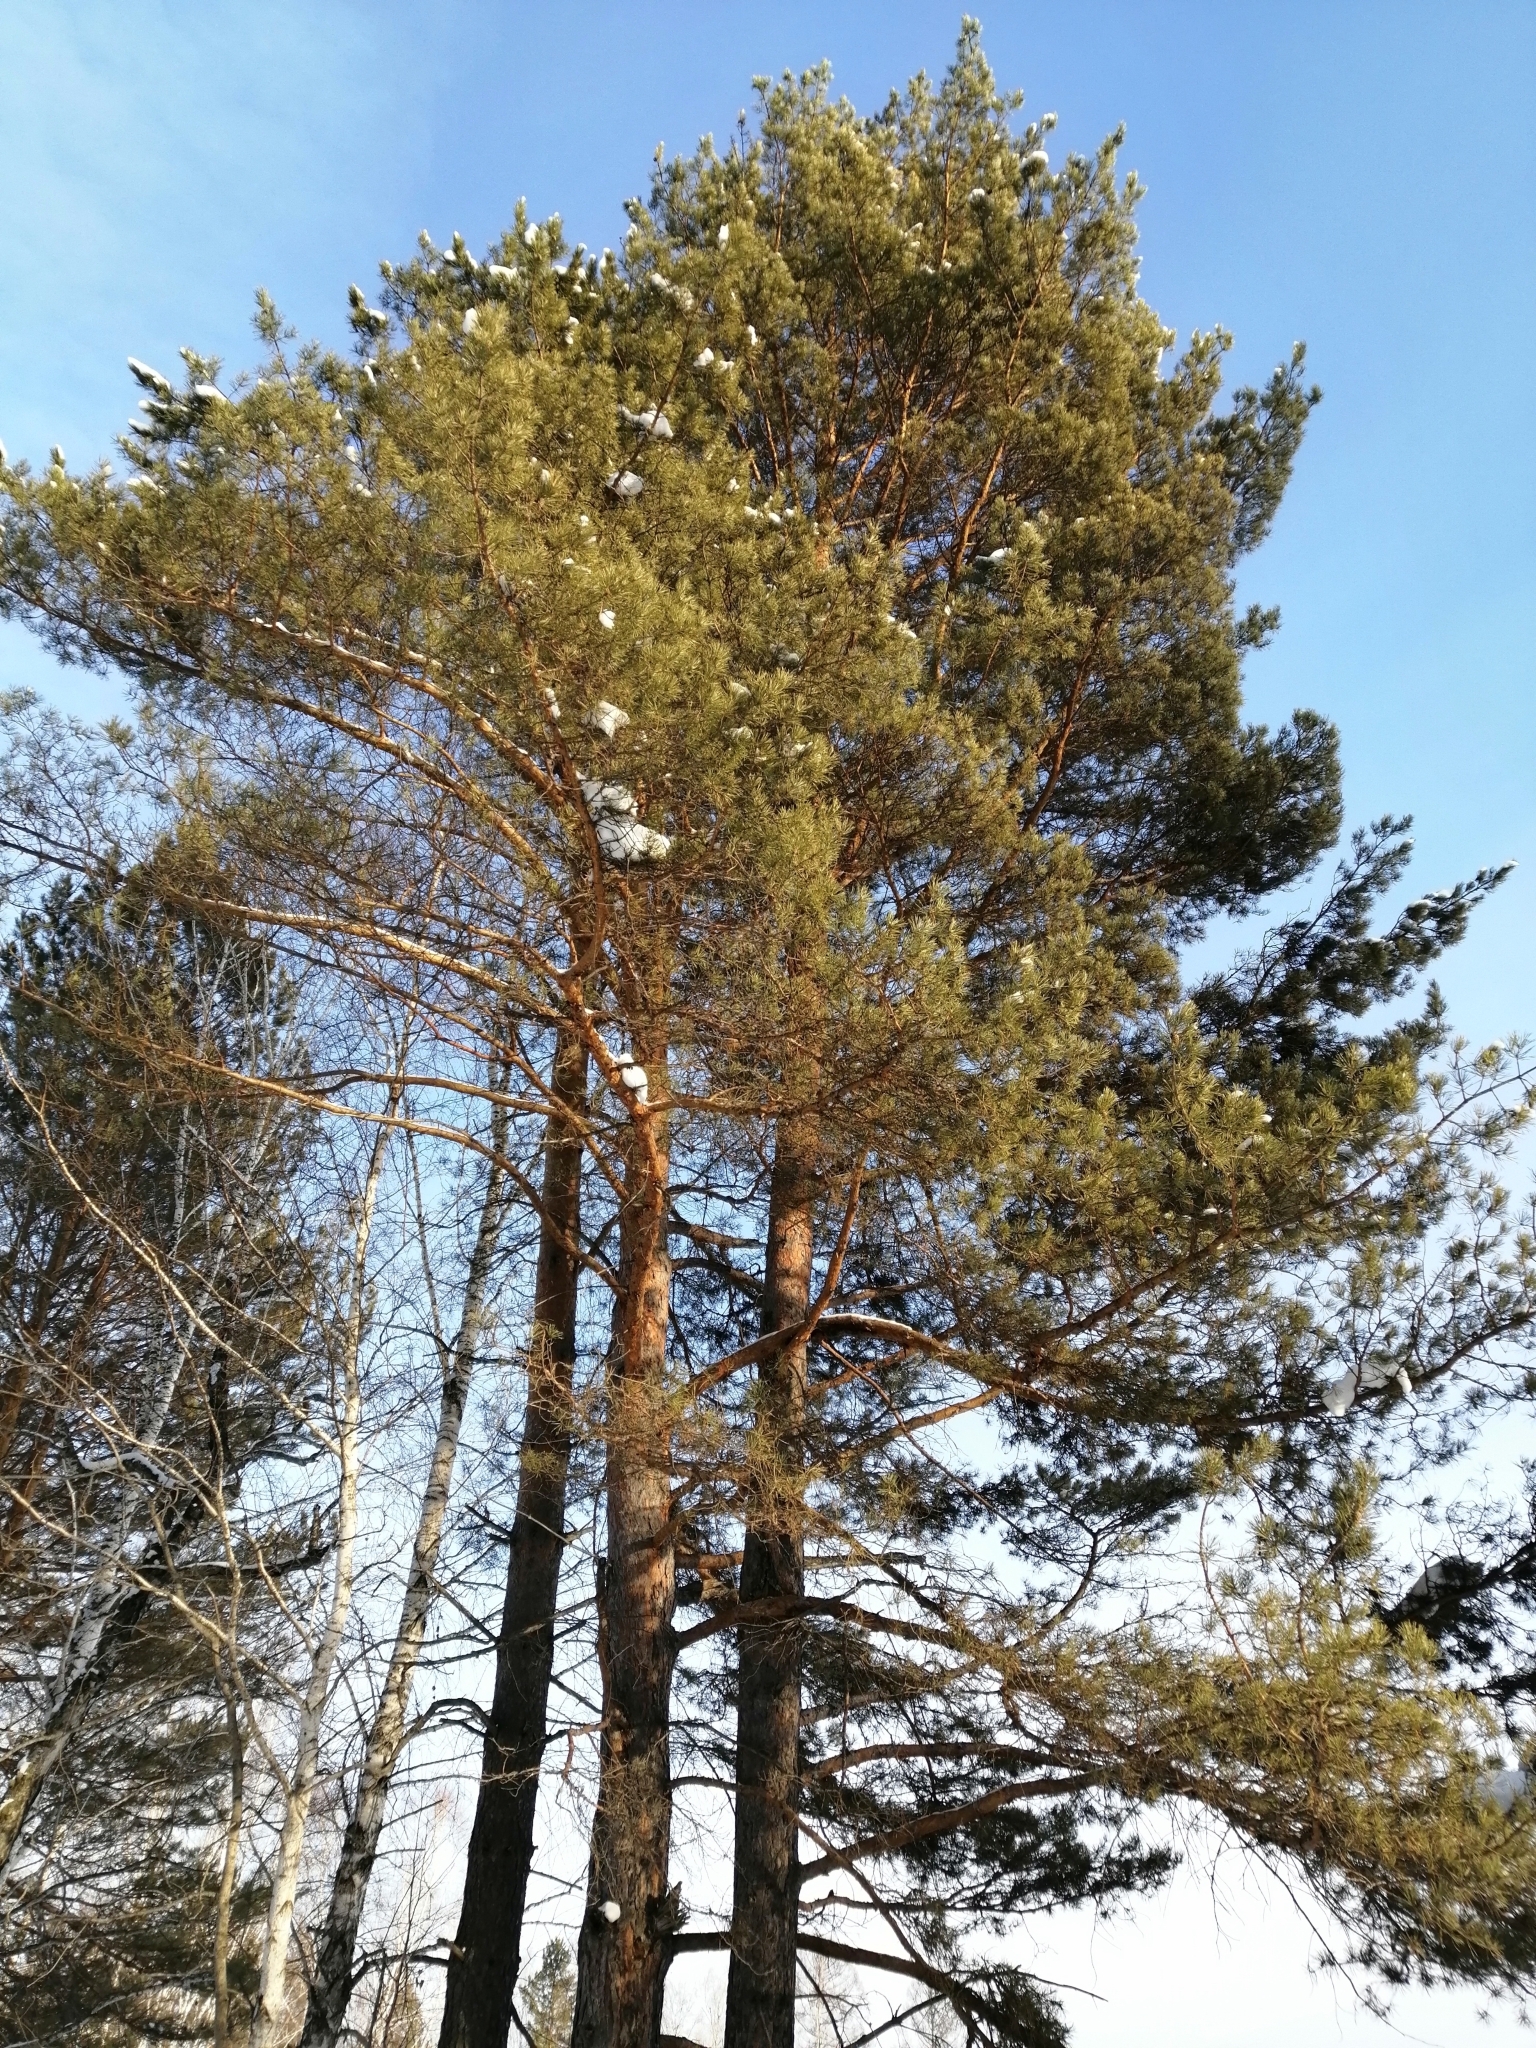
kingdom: Plantae
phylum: Tracheophyta
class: Pinopsida
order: Pinales
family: Pinaceae
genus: Pinus
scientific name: Pinus sylvestris
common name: Scots pine
